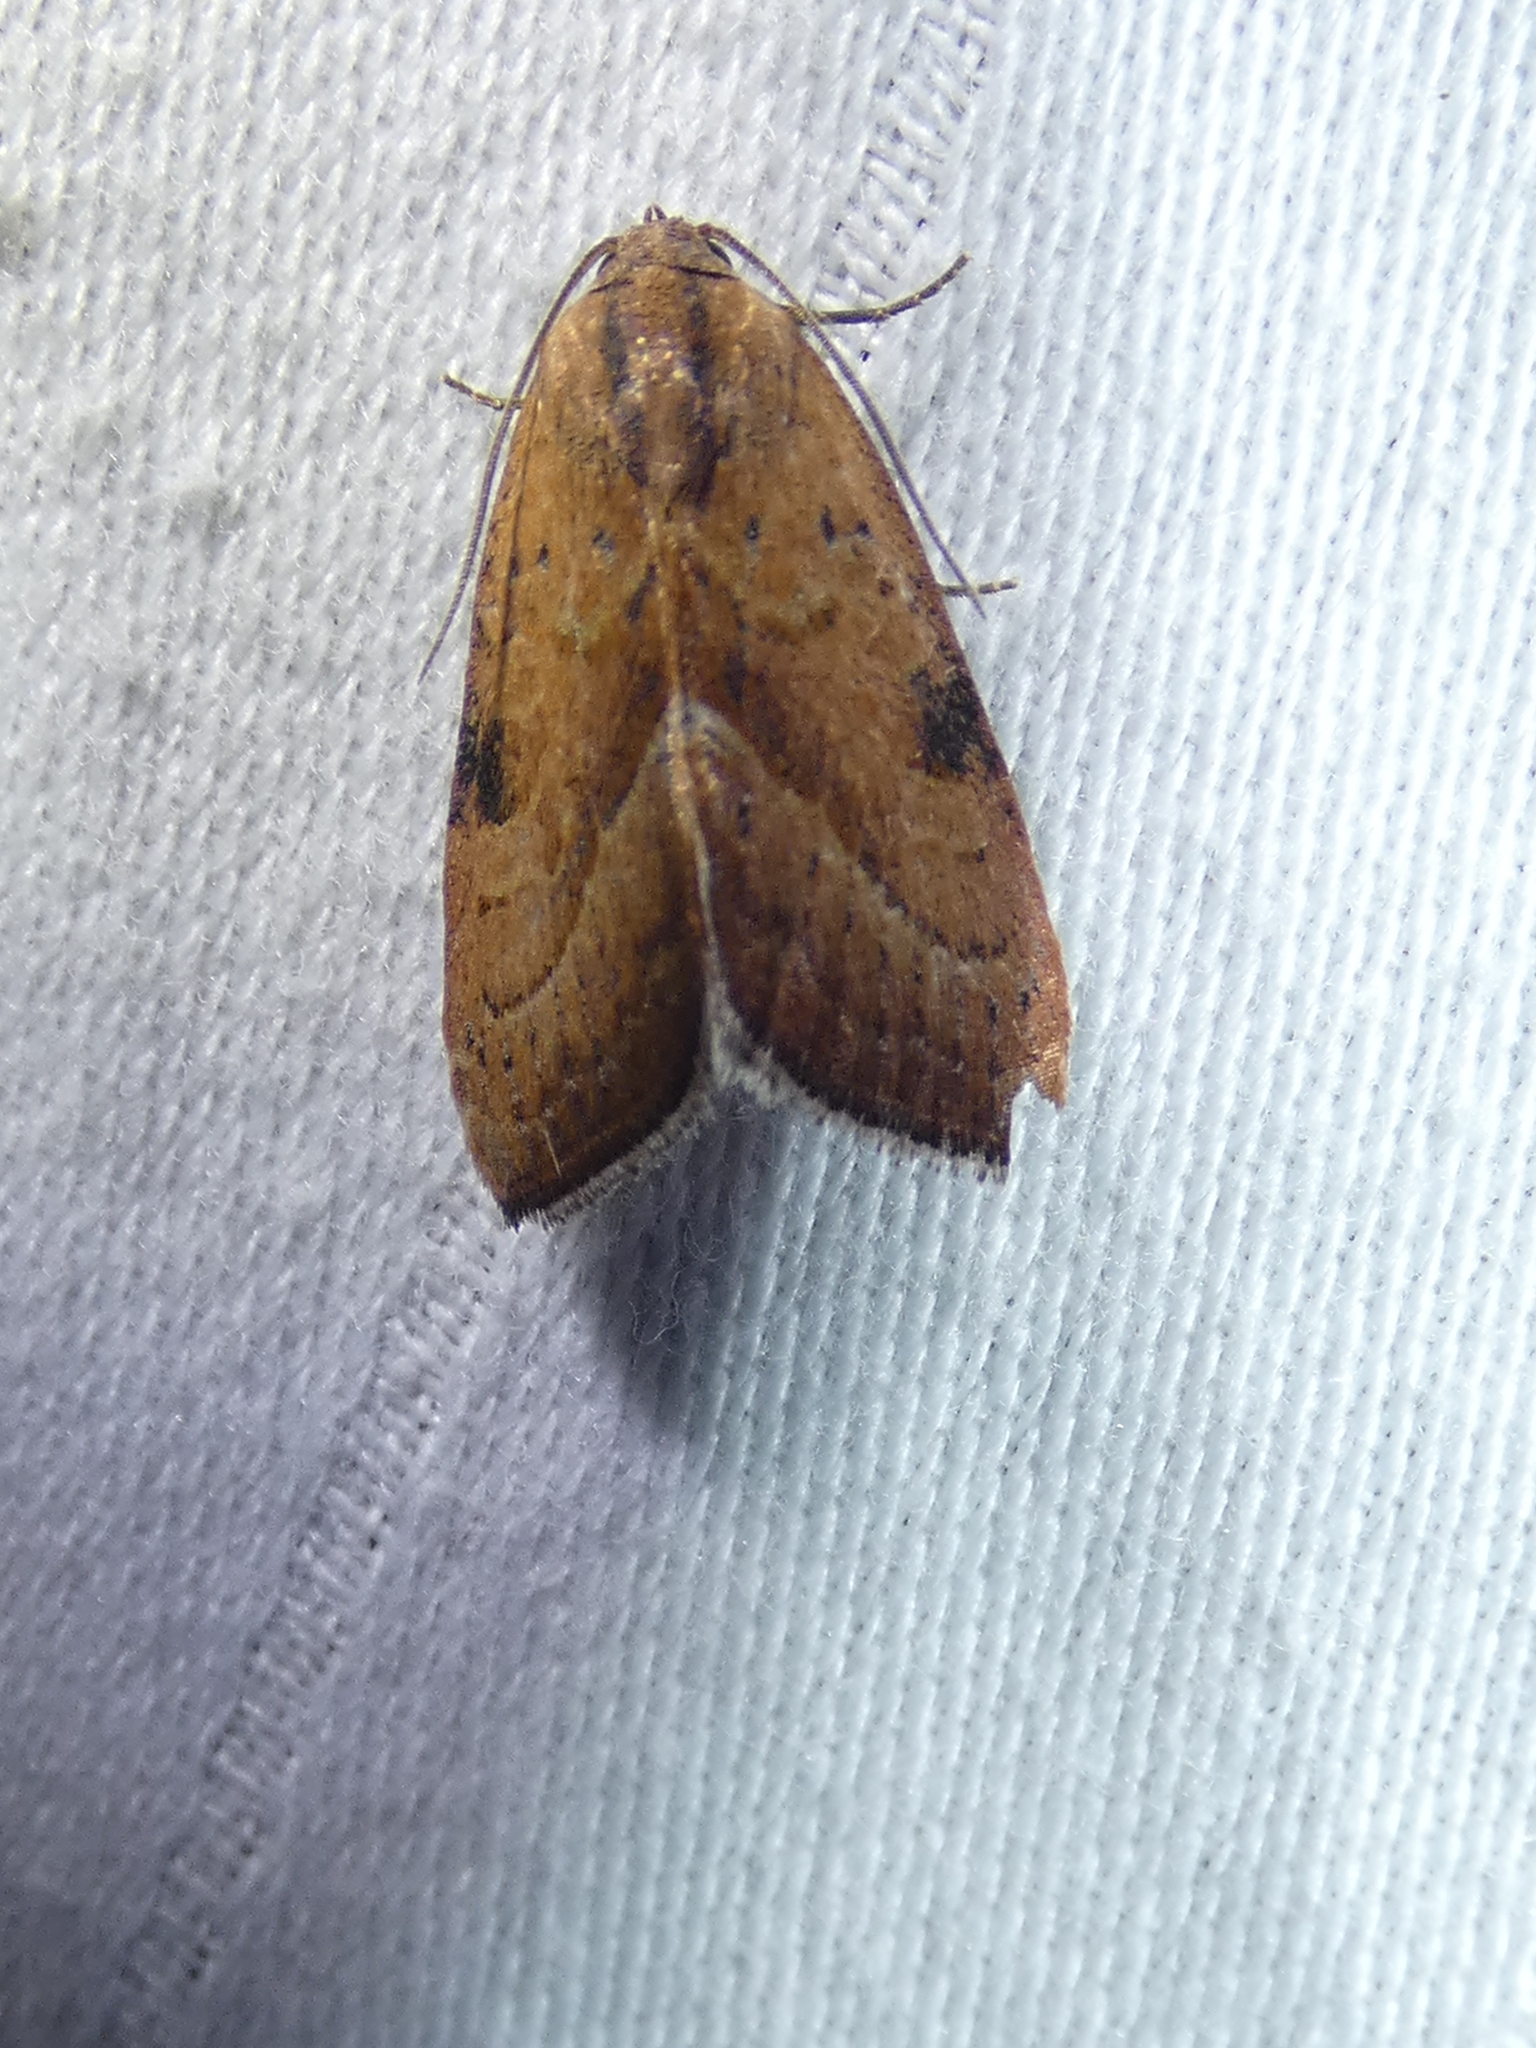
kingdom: Animalia
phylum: Arthropoda
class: Insecta
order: Lepidoptera
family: Noctuidae
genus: Galgula
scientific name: Galgula partita
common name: Wedgeling
